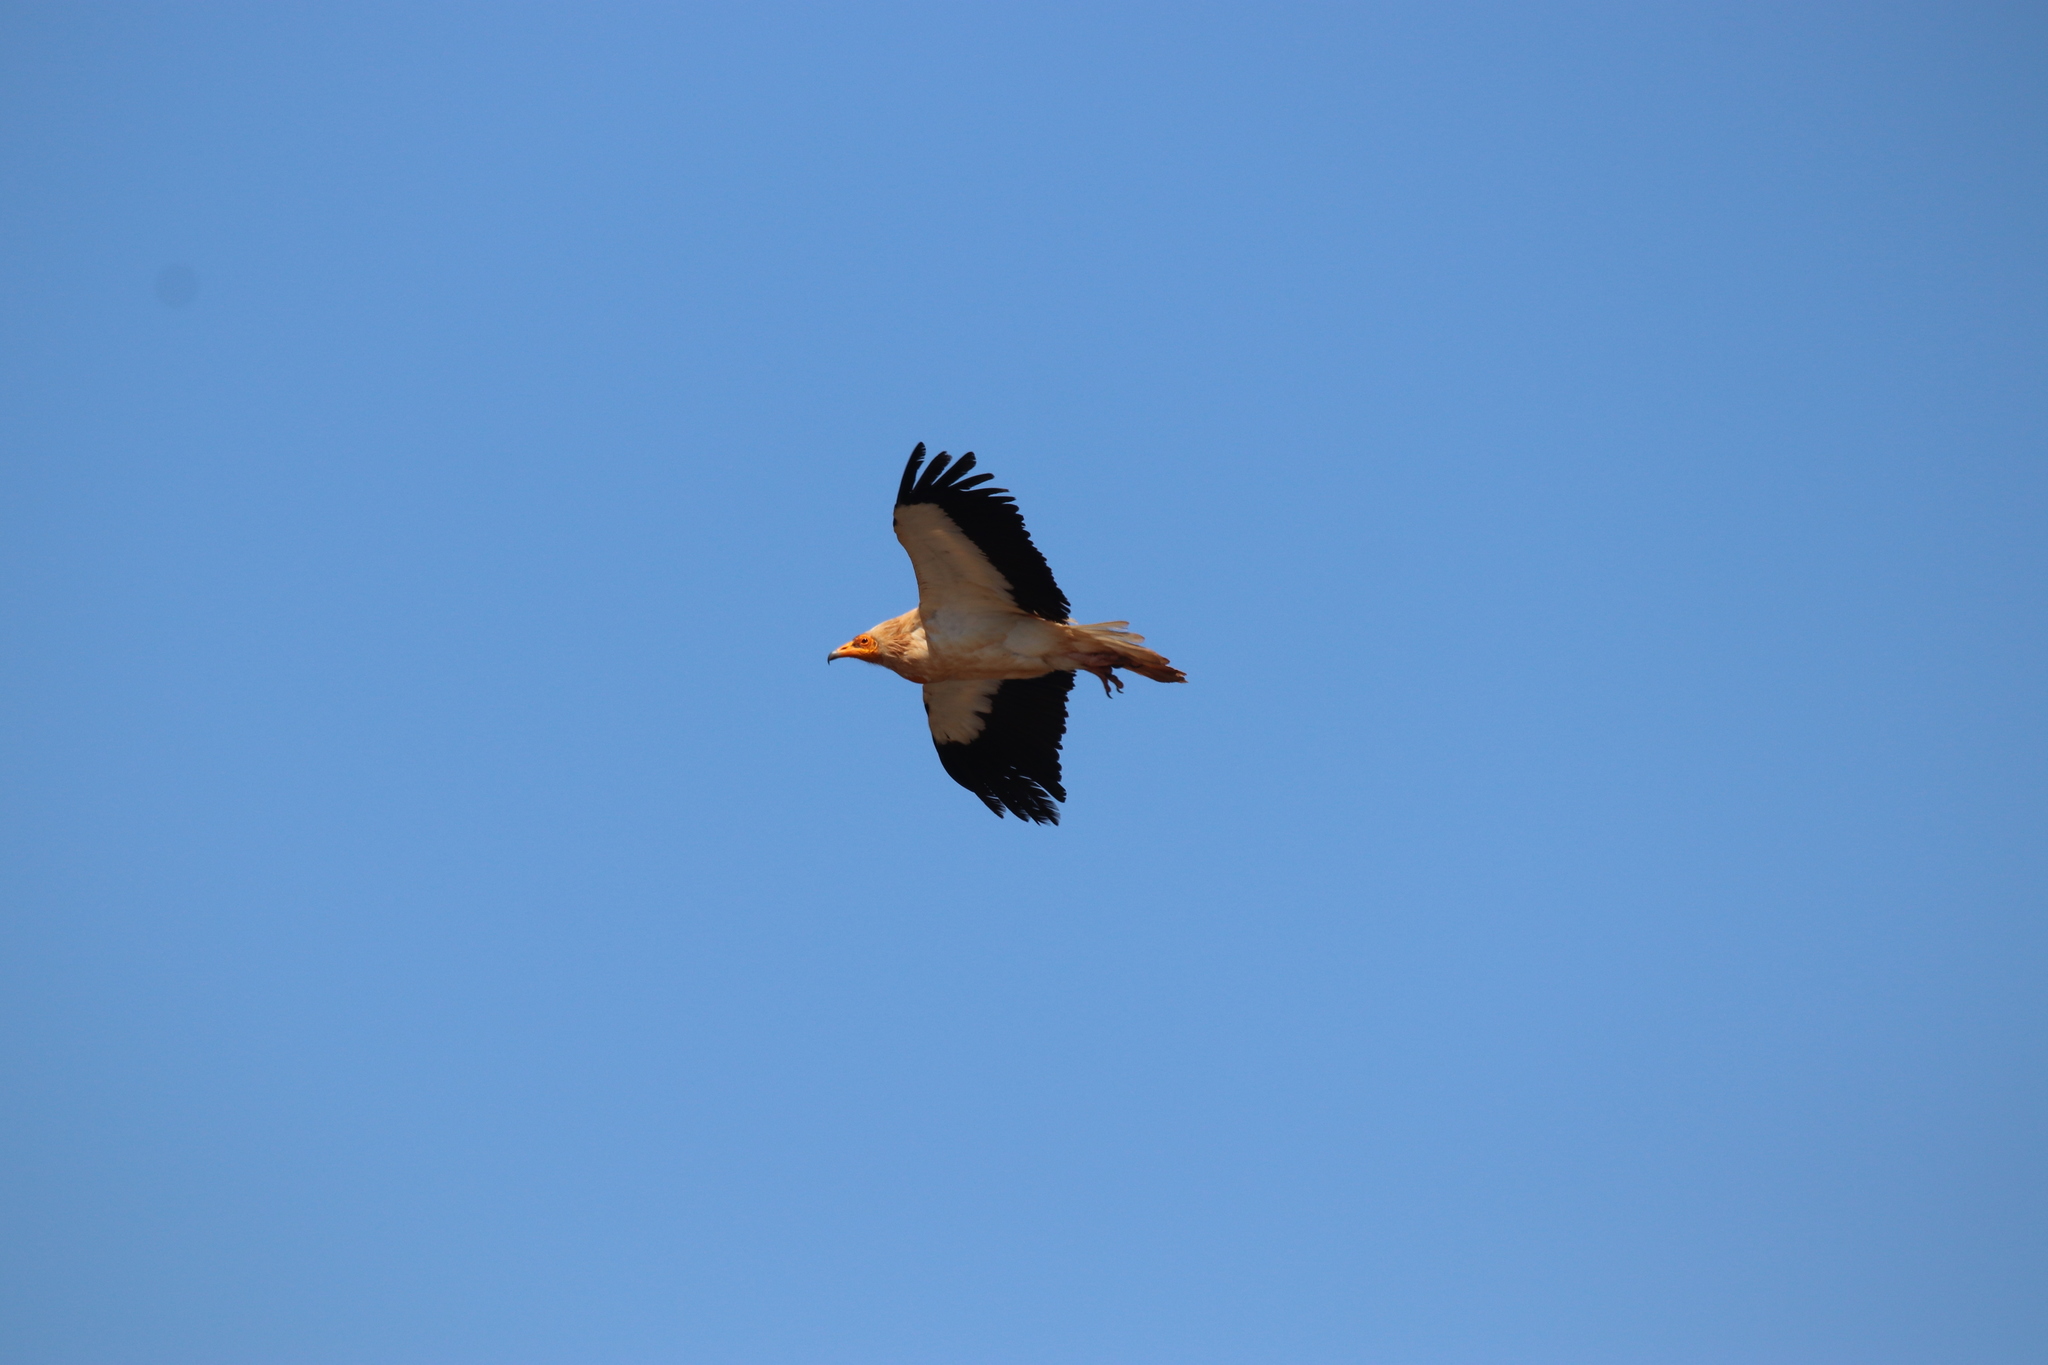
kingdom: Animalia
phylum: Chordata
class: Aves
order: Accipitriformes
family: Accipitridae
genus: Neophron
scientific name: Neophron percnopterus
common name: Egyptian vulture
